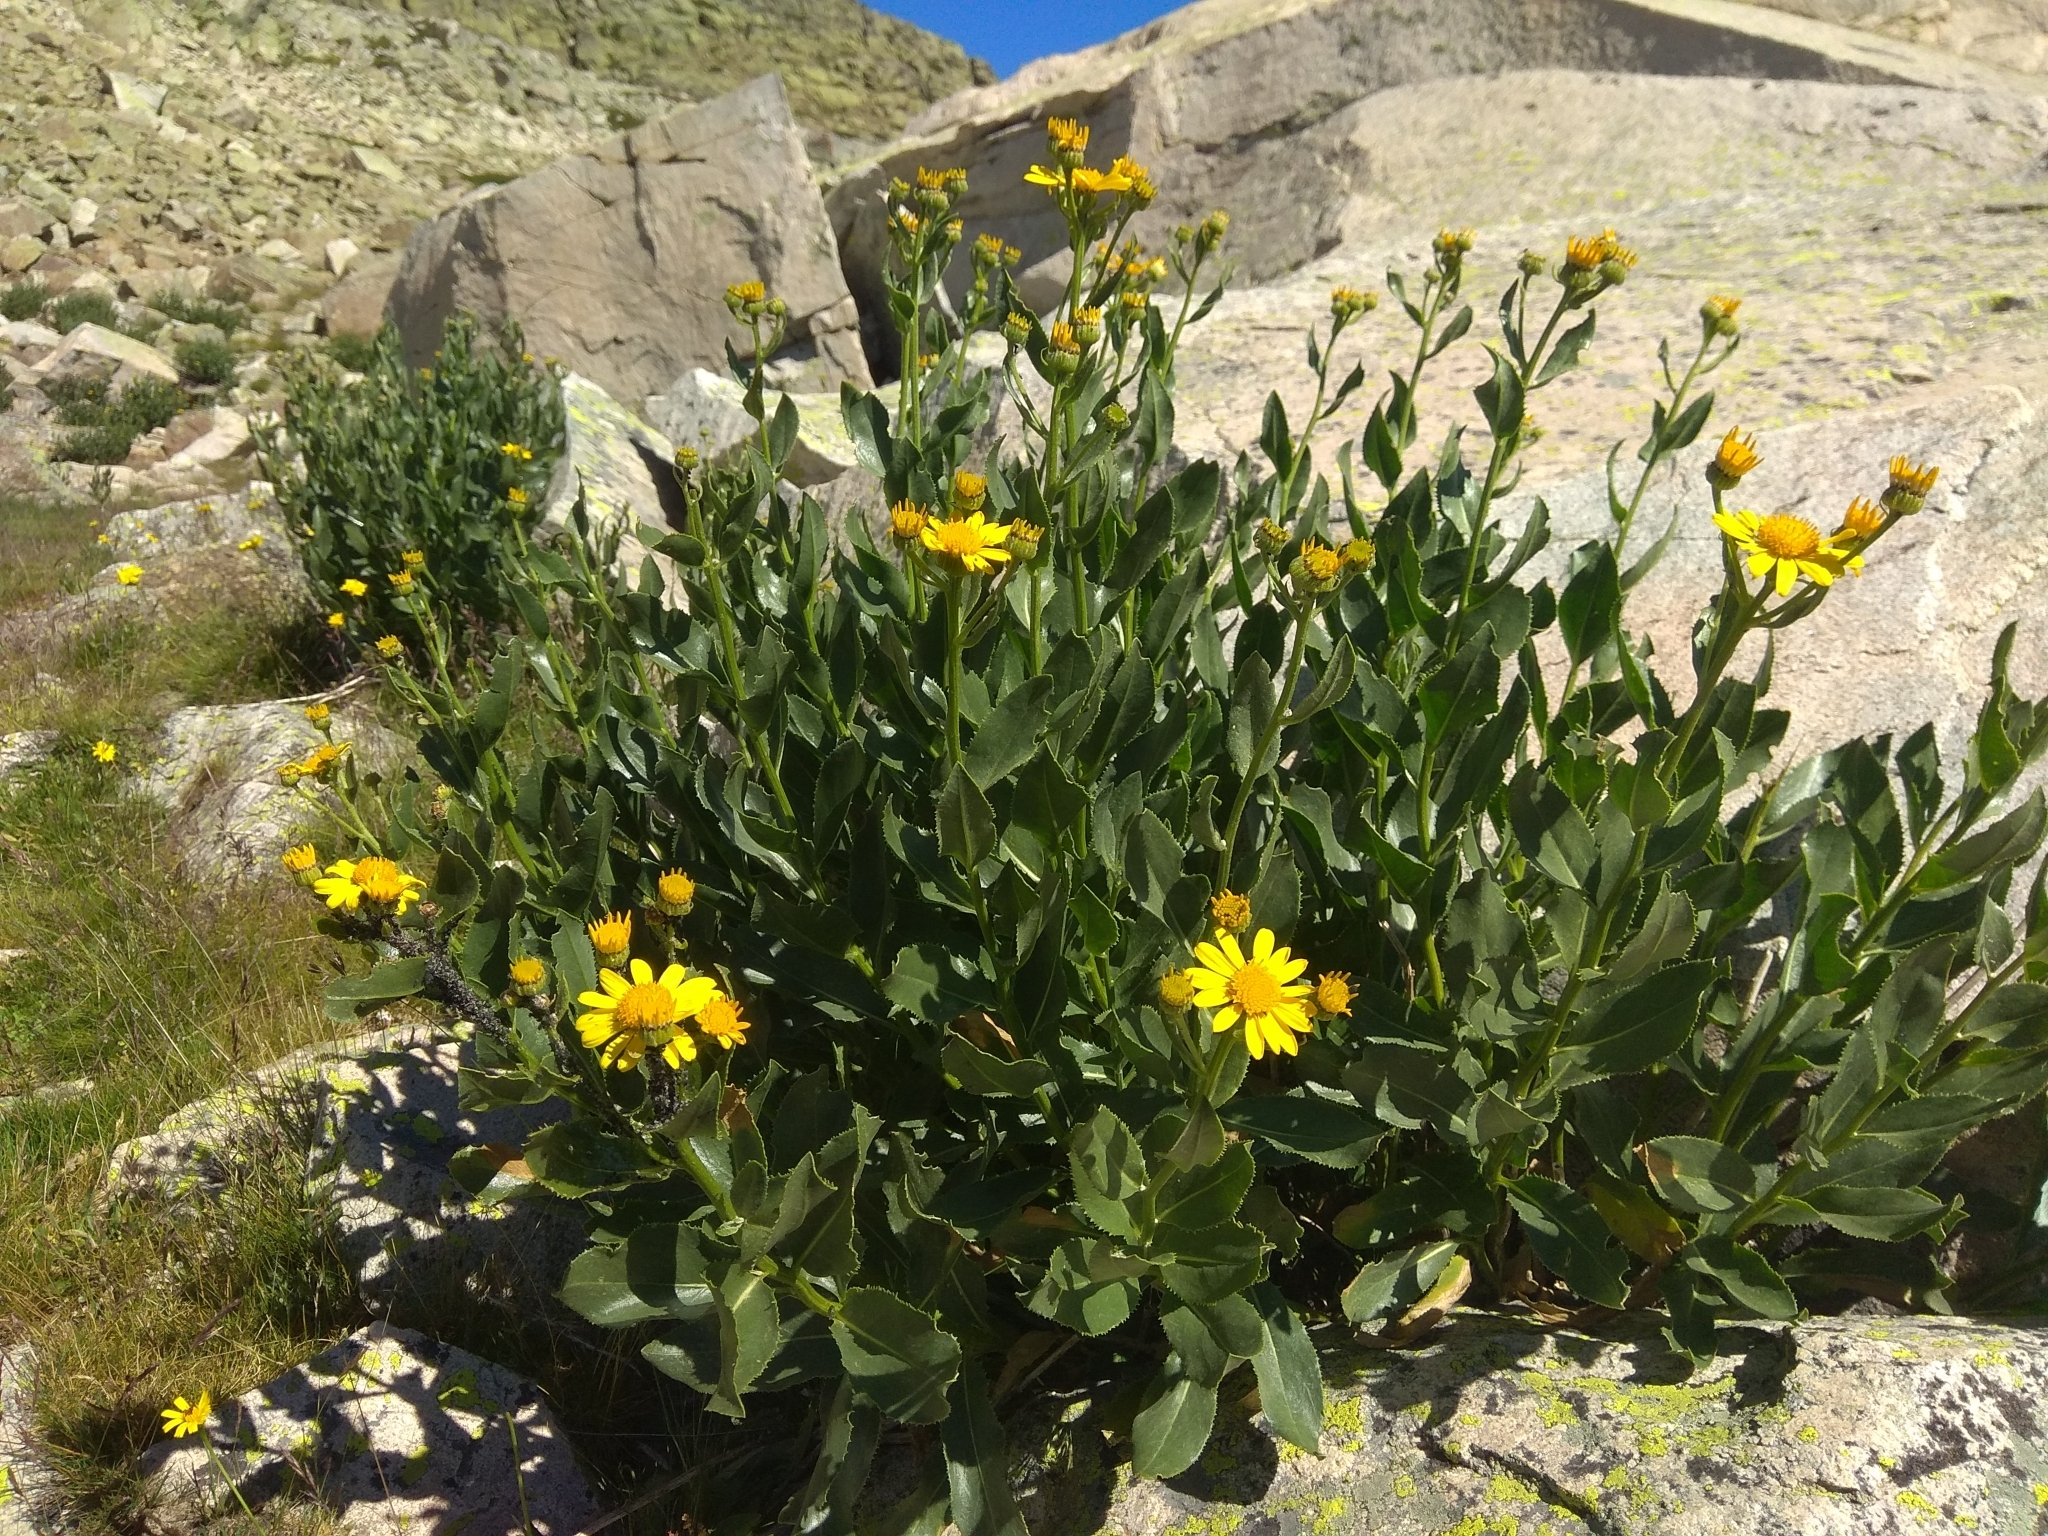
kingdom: Plantae
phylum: Tracheophyta
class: Magnoliopsida
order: Asterales
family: Asteraceae
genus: Senecio
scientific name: Senecio pyrenaicus
